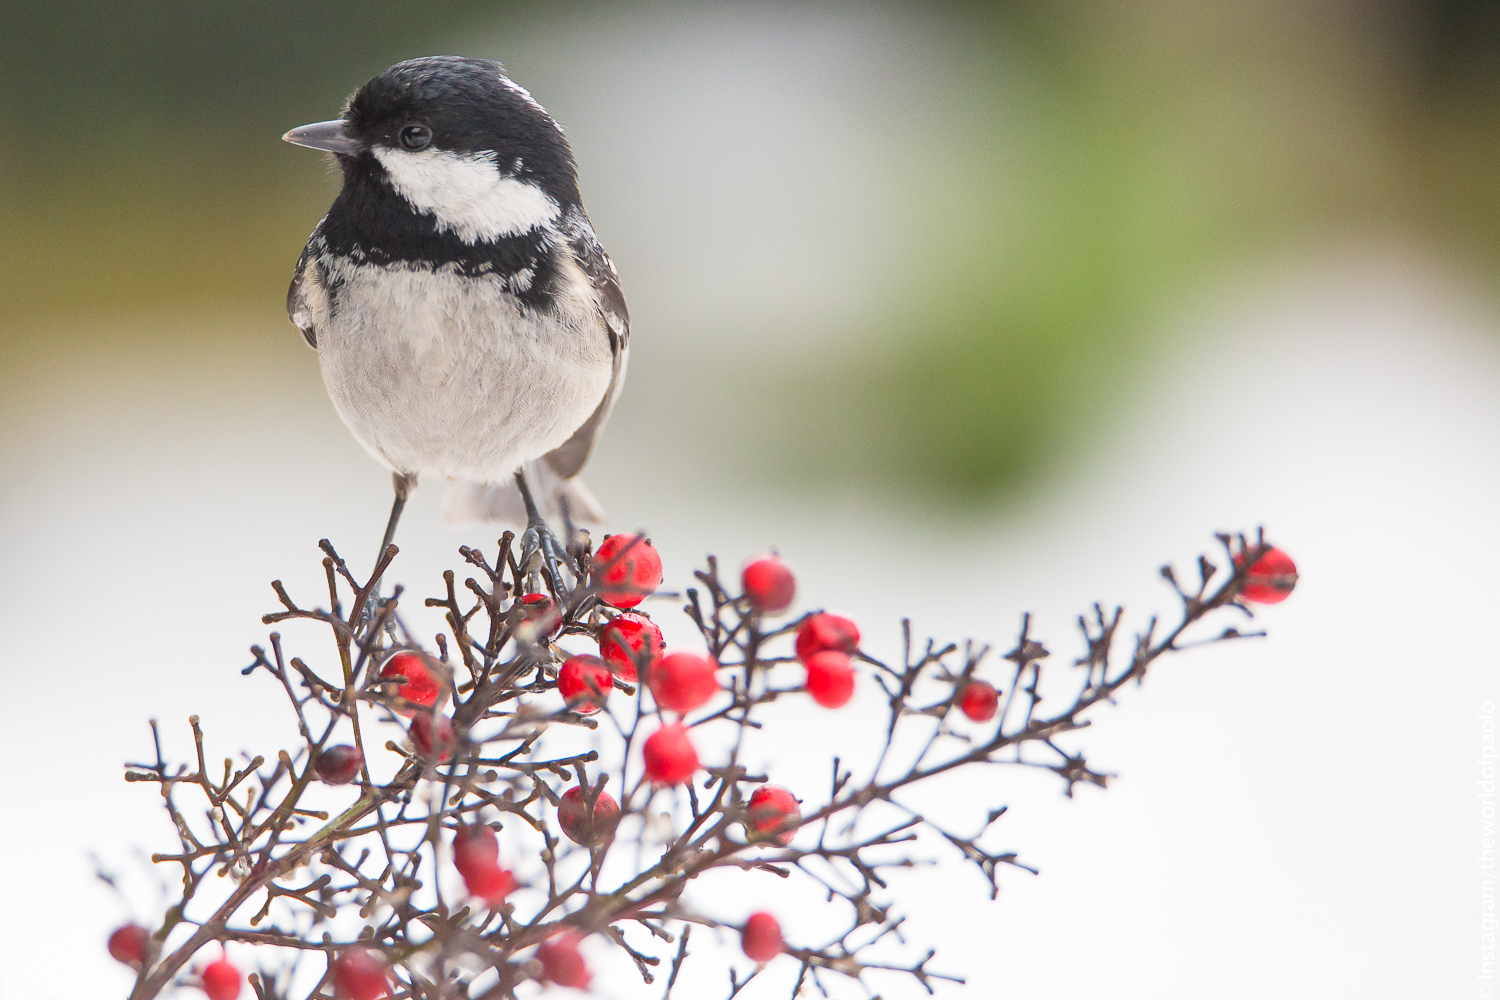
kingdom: Animalia
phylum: Chordata
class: Aves
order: Passeriformes
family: Paridae
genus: Periparus
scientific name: Periparus ater
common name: Coal tit
